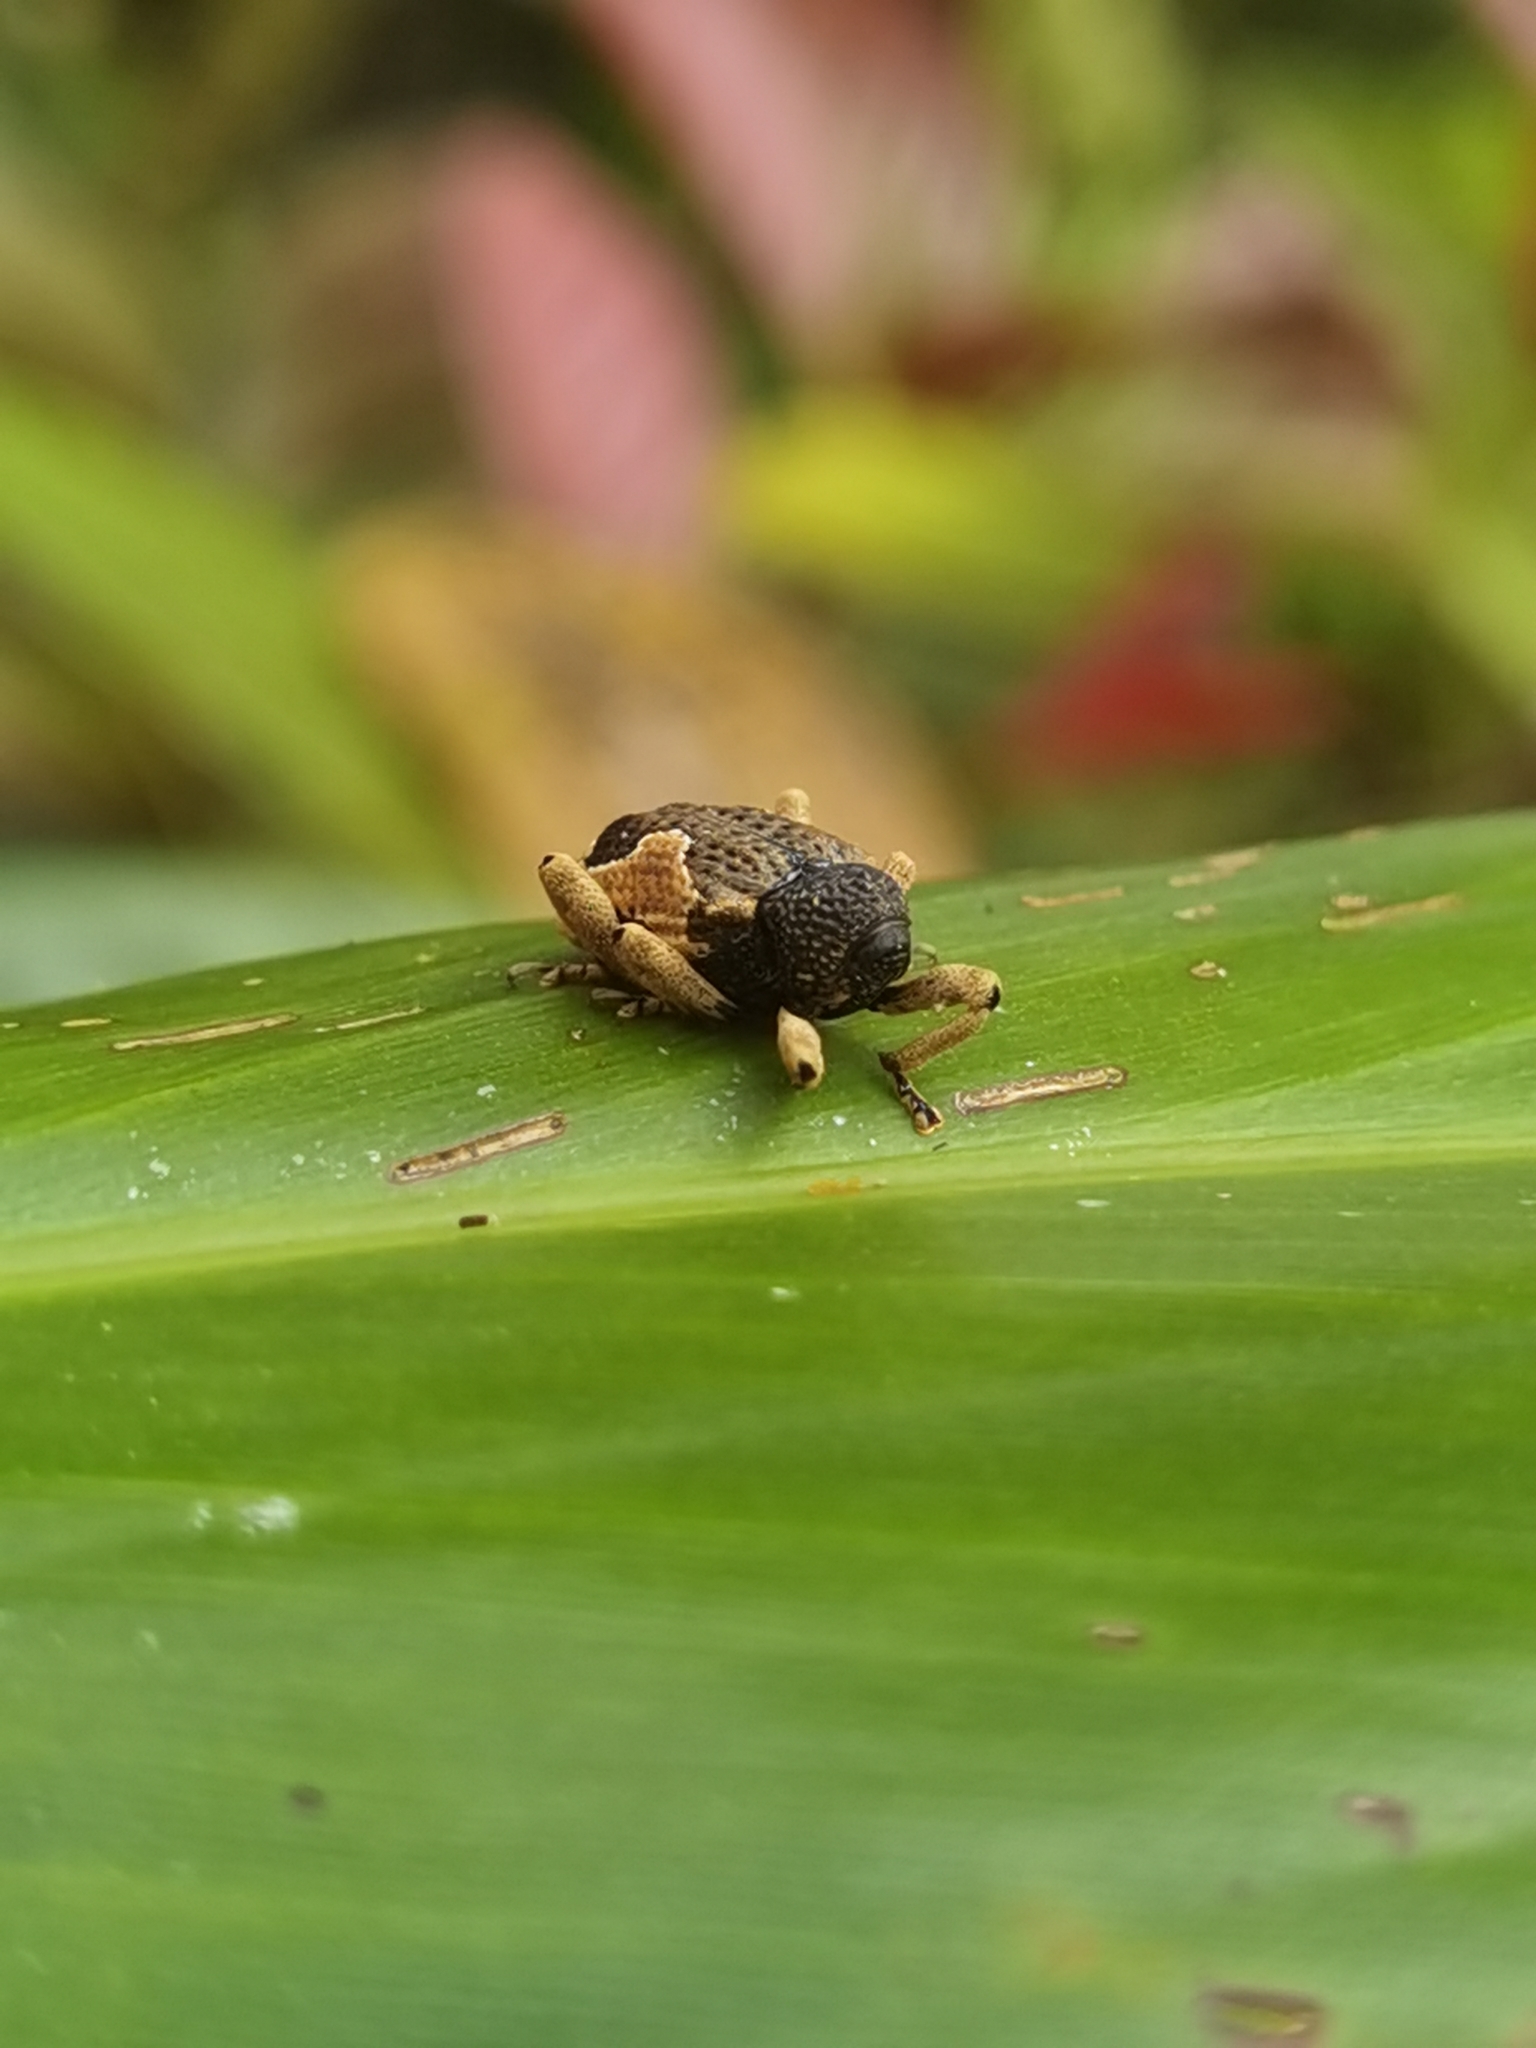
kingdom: Animalia
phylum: Arthropoda
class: Insecta
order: Coleoptera
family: Curculionidae
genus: Elytrocoptus
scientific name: Elytrocoptus lemniscatus
